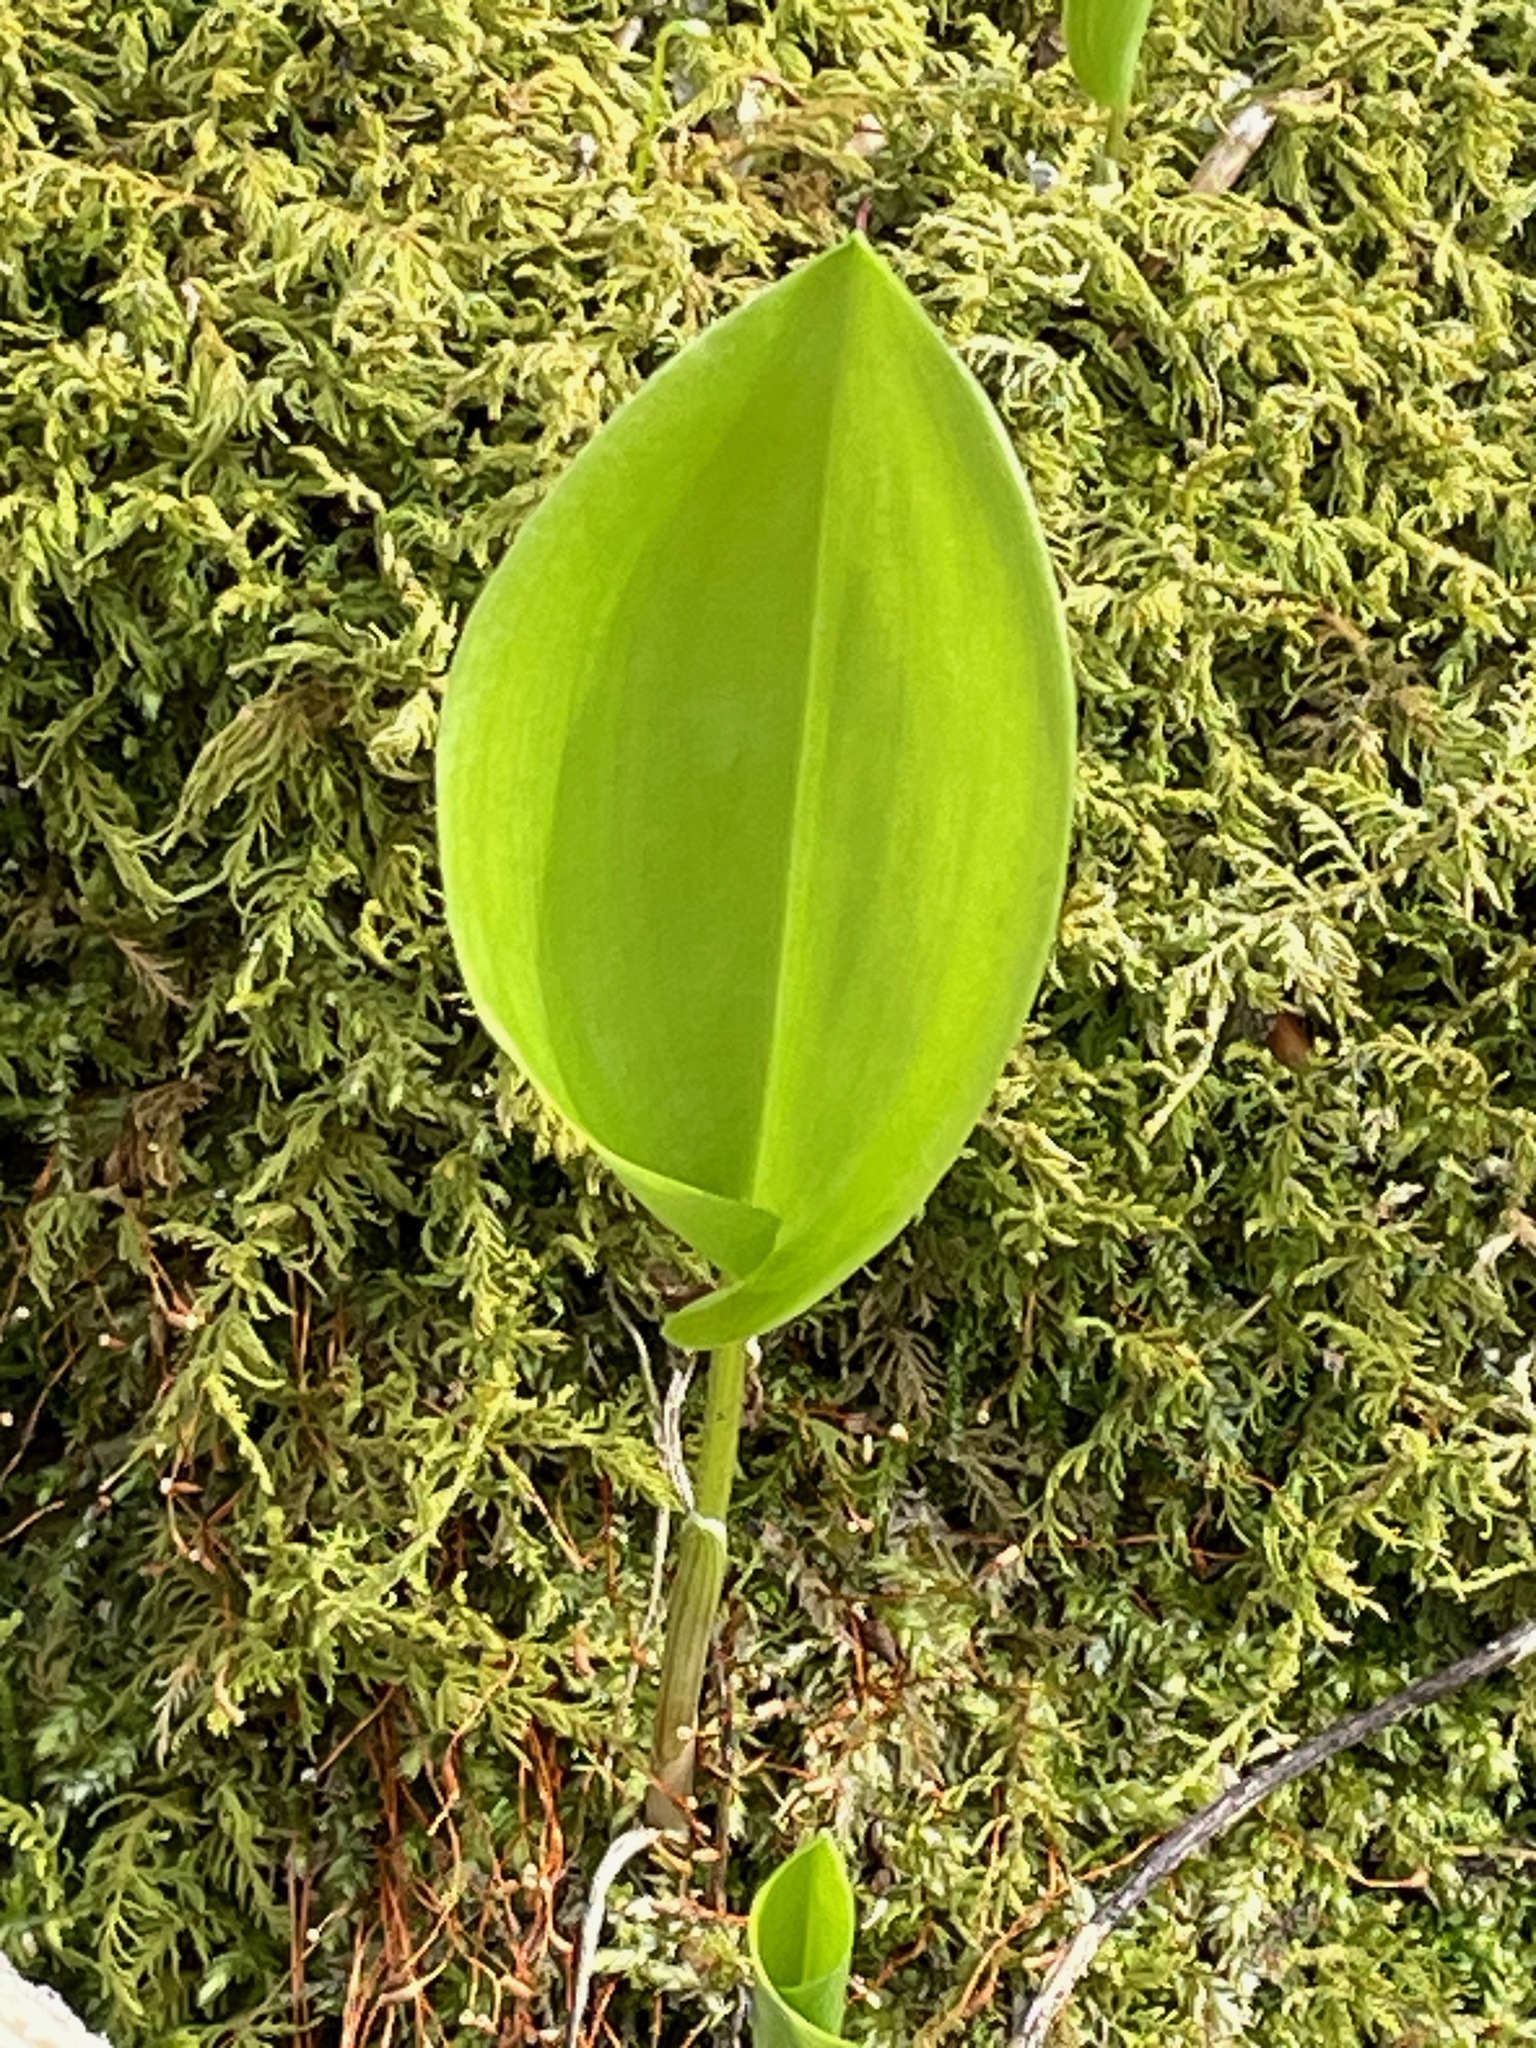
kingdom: Plantae
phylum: Tracheophyta
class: Liliopsida
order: Asparagales
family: Asparagaceae
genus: Maianthemum
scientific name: Maianthemum canadense
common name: False lily-of-the-valley
